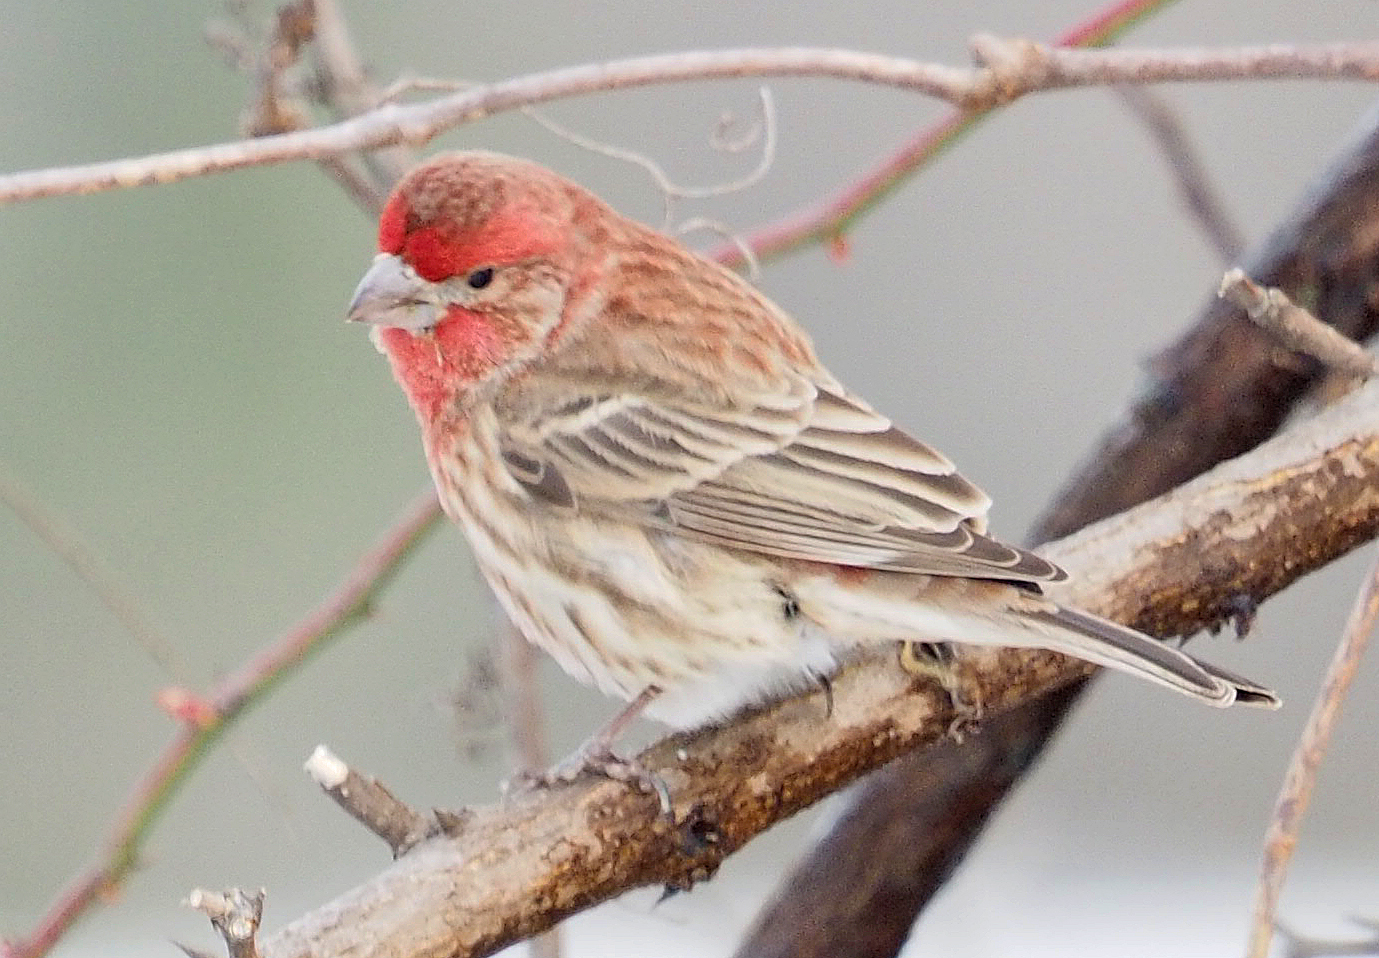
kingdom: Animalia
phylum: Chordata
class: Aves
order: Passeriformes
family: Fringillidae
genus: Haemorhous
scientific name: Haemorhous mexicanus
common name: House finch
